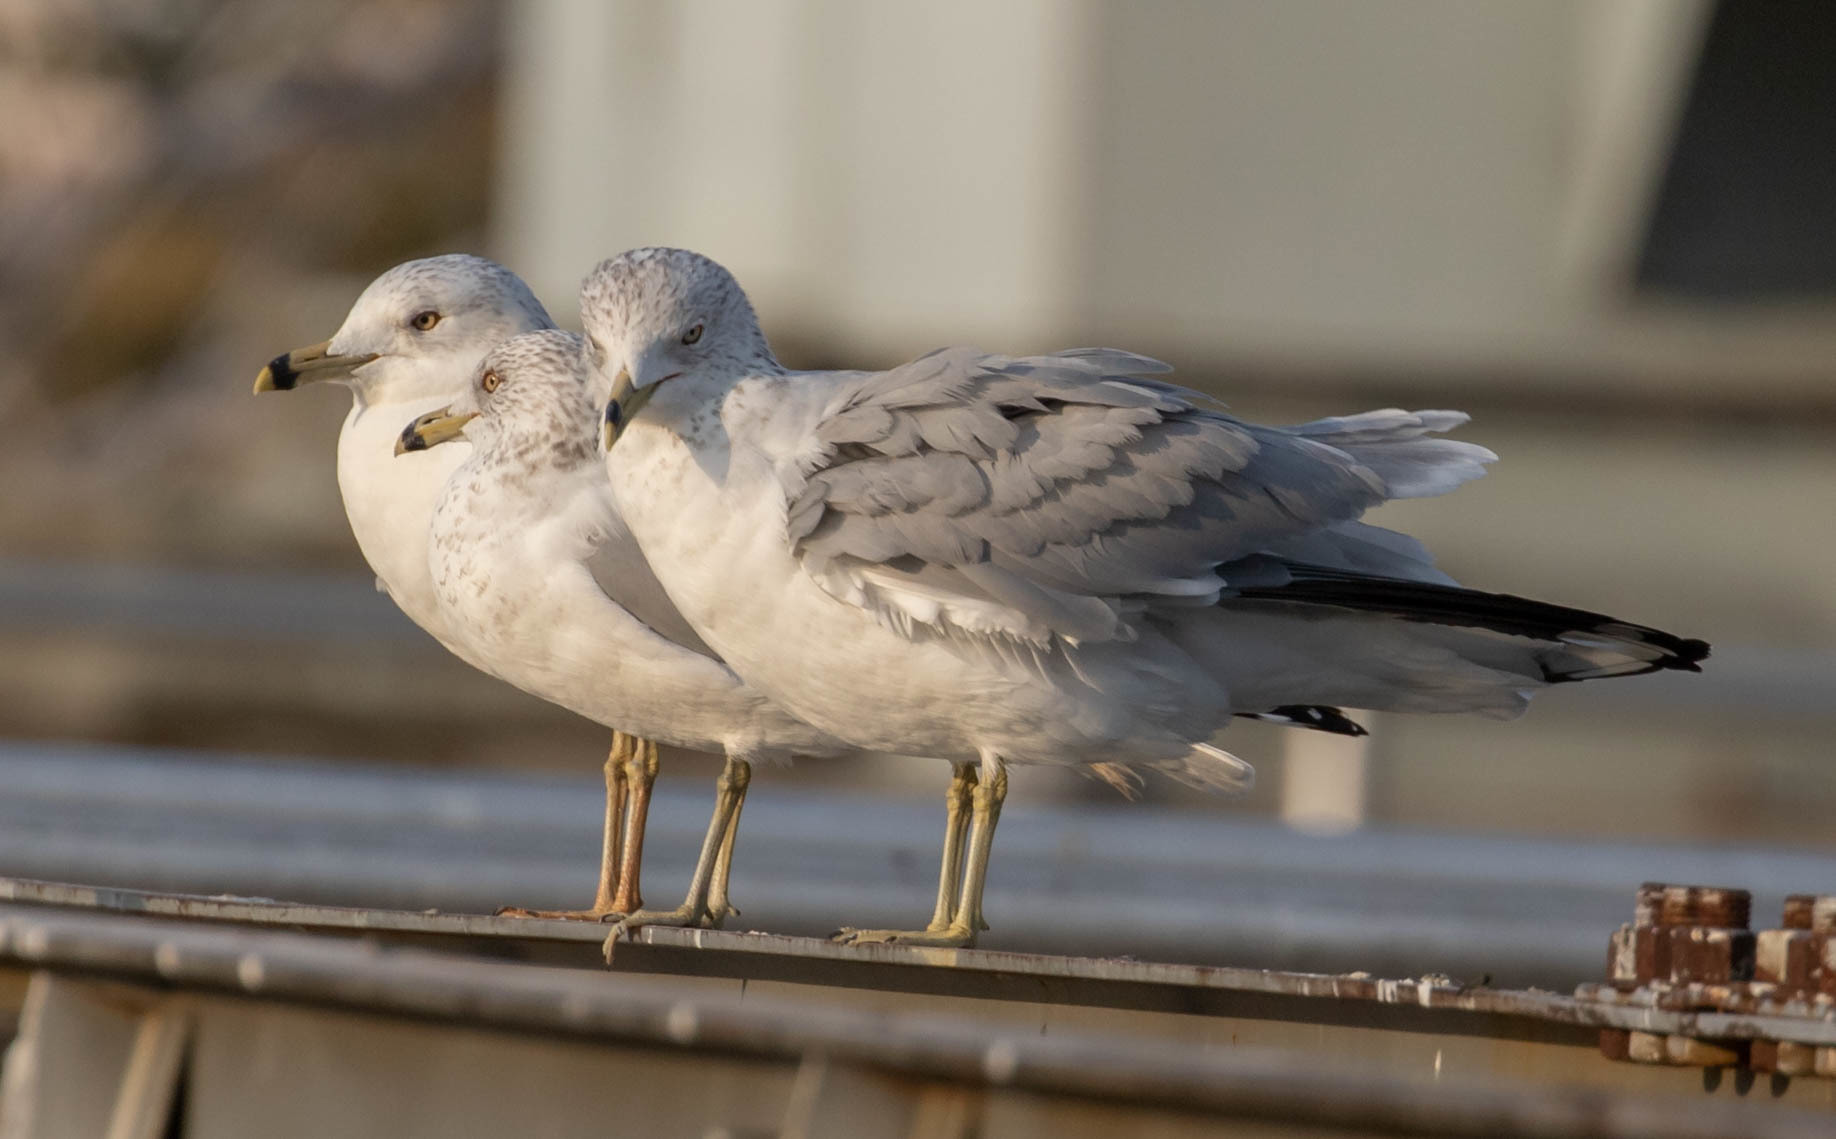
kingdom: Animalia
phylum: Chordata
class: Aves
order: Charadriiformes
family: Laridae
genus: Larus
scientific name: Larus delawarensis
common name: Ring-billed gull
